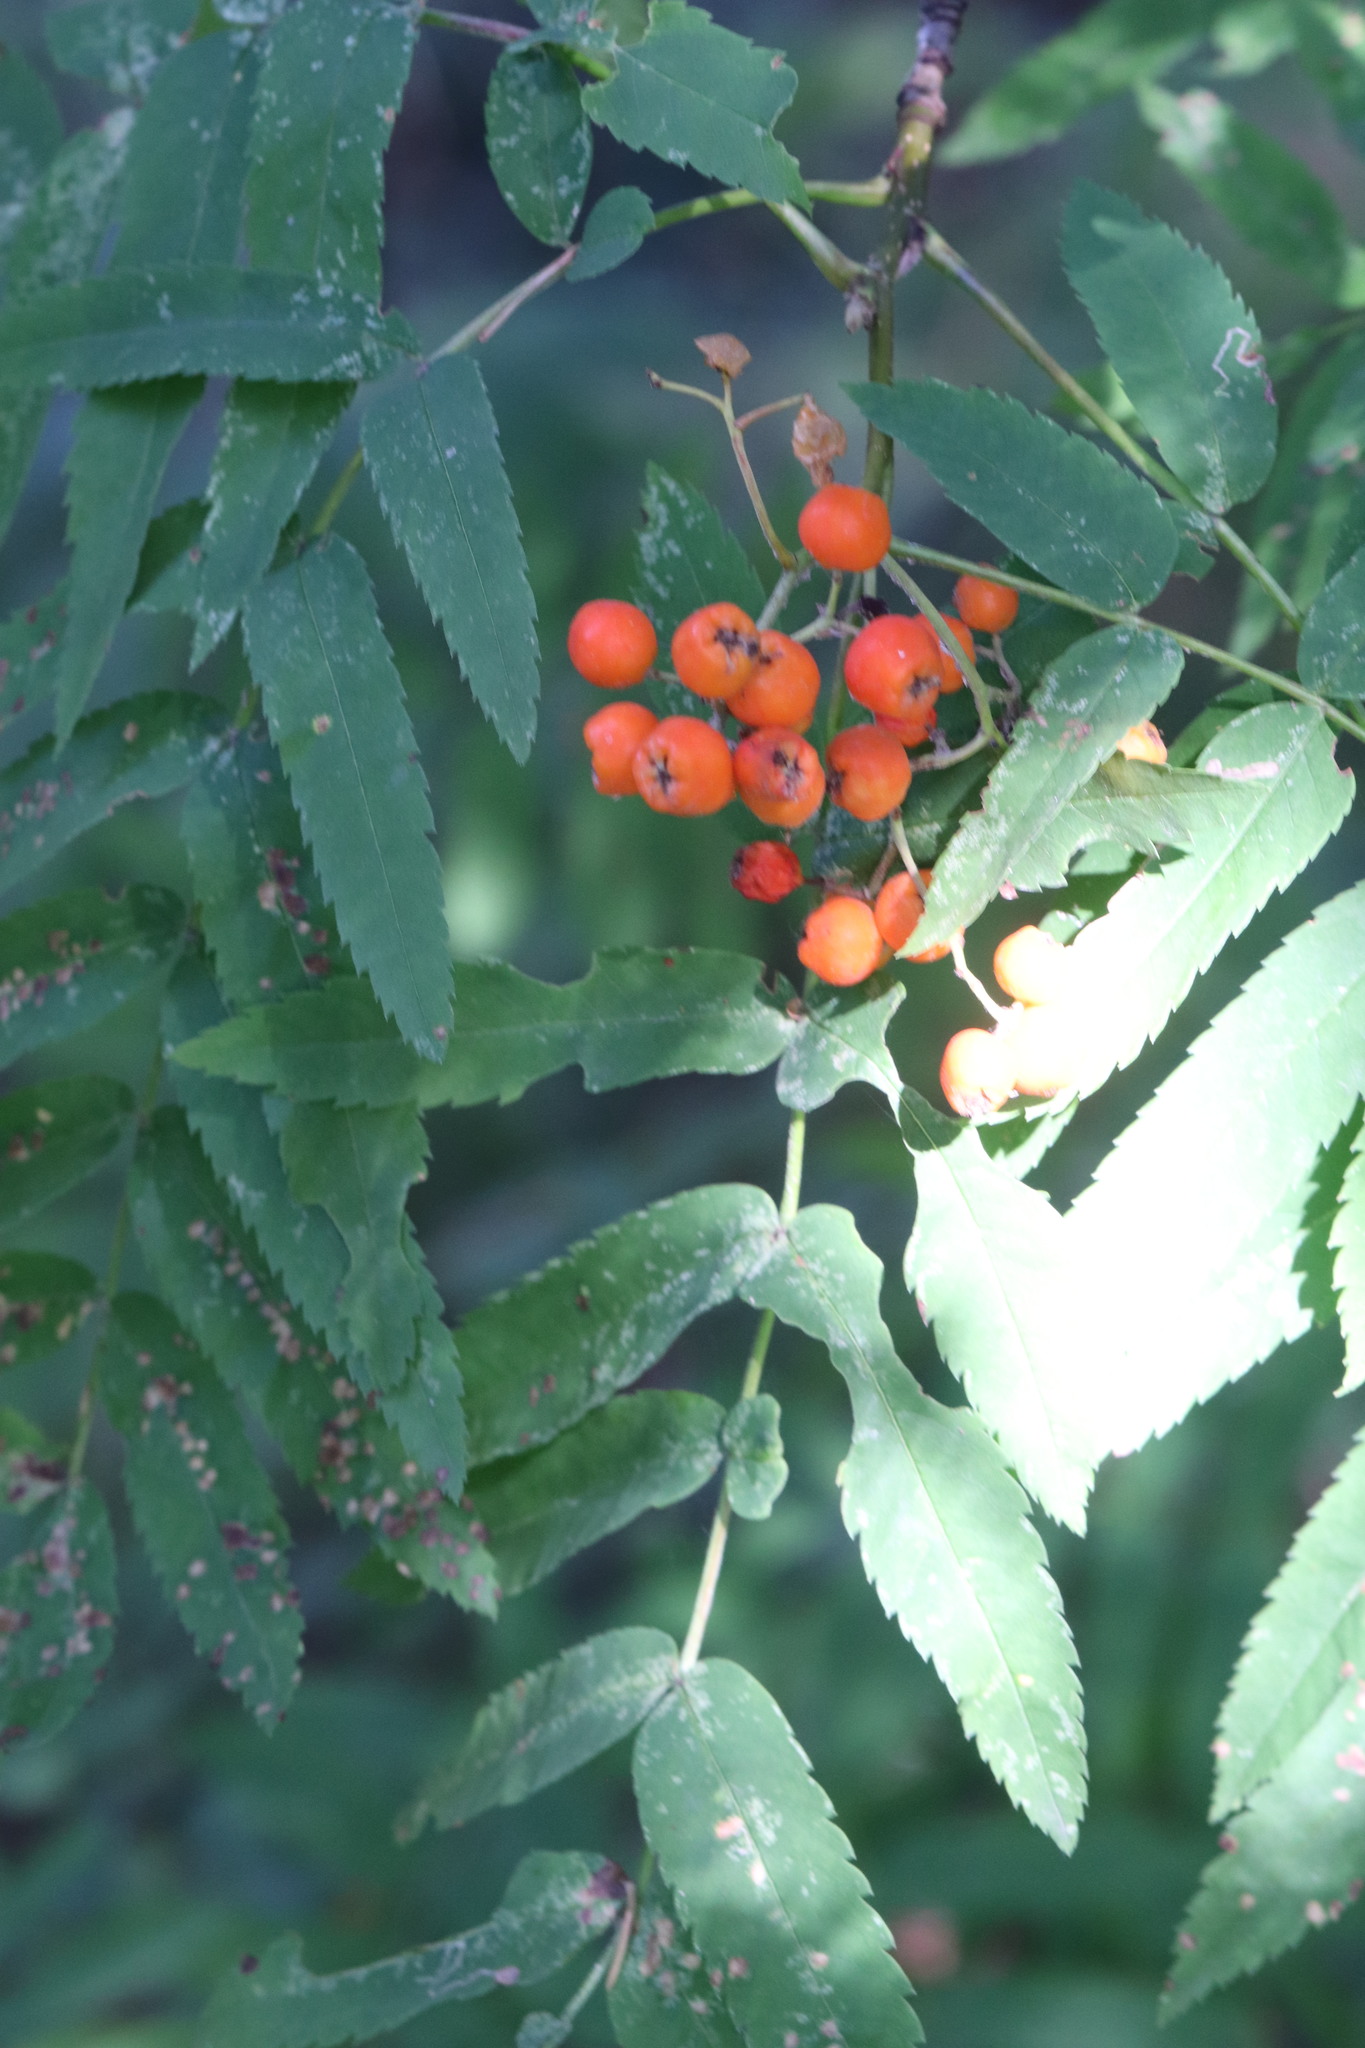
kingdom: Plantae
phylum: Tracheophyta
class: Magnoliopsida
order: Rosales
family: Rosaceae
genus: Sorbus
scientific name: Sorbus aucuparia
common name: Rowan
